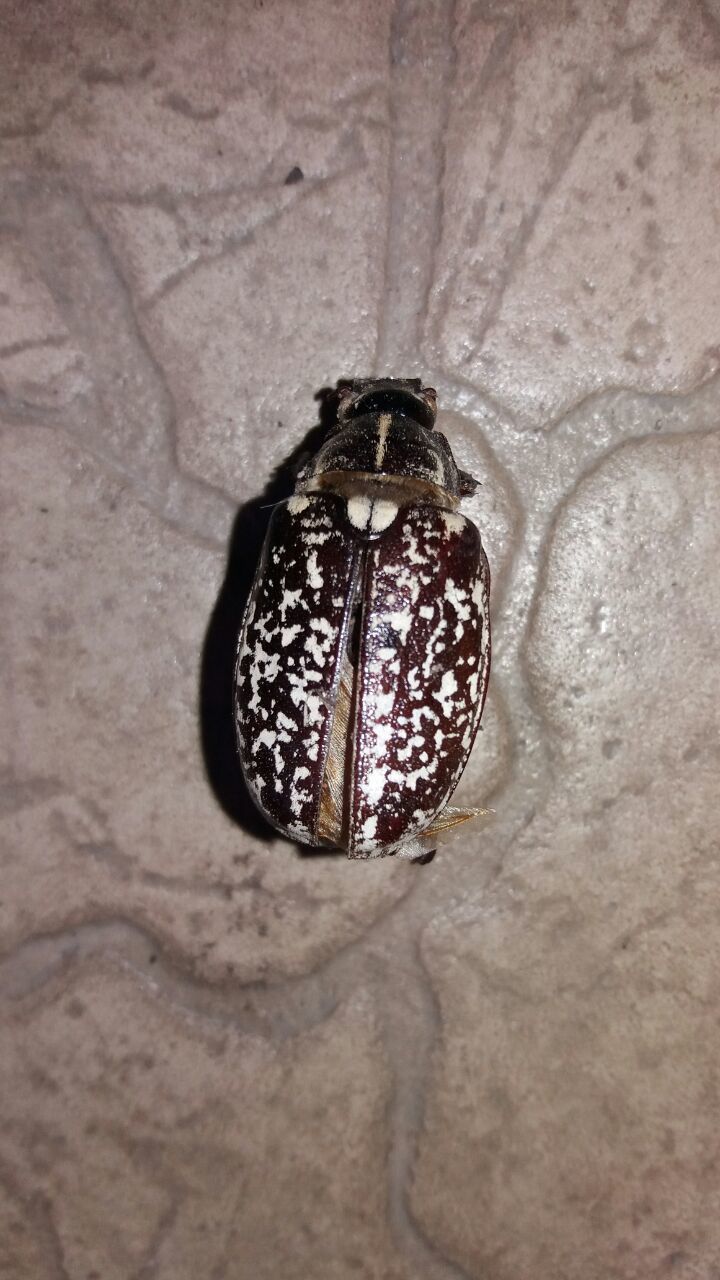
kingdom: Animalia
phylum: Arthropoda
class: Insecta
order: Coleoptera
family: Scarabaeidae
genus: Polyphylla
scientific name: Polyphylla fullo
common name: Pine chafer
